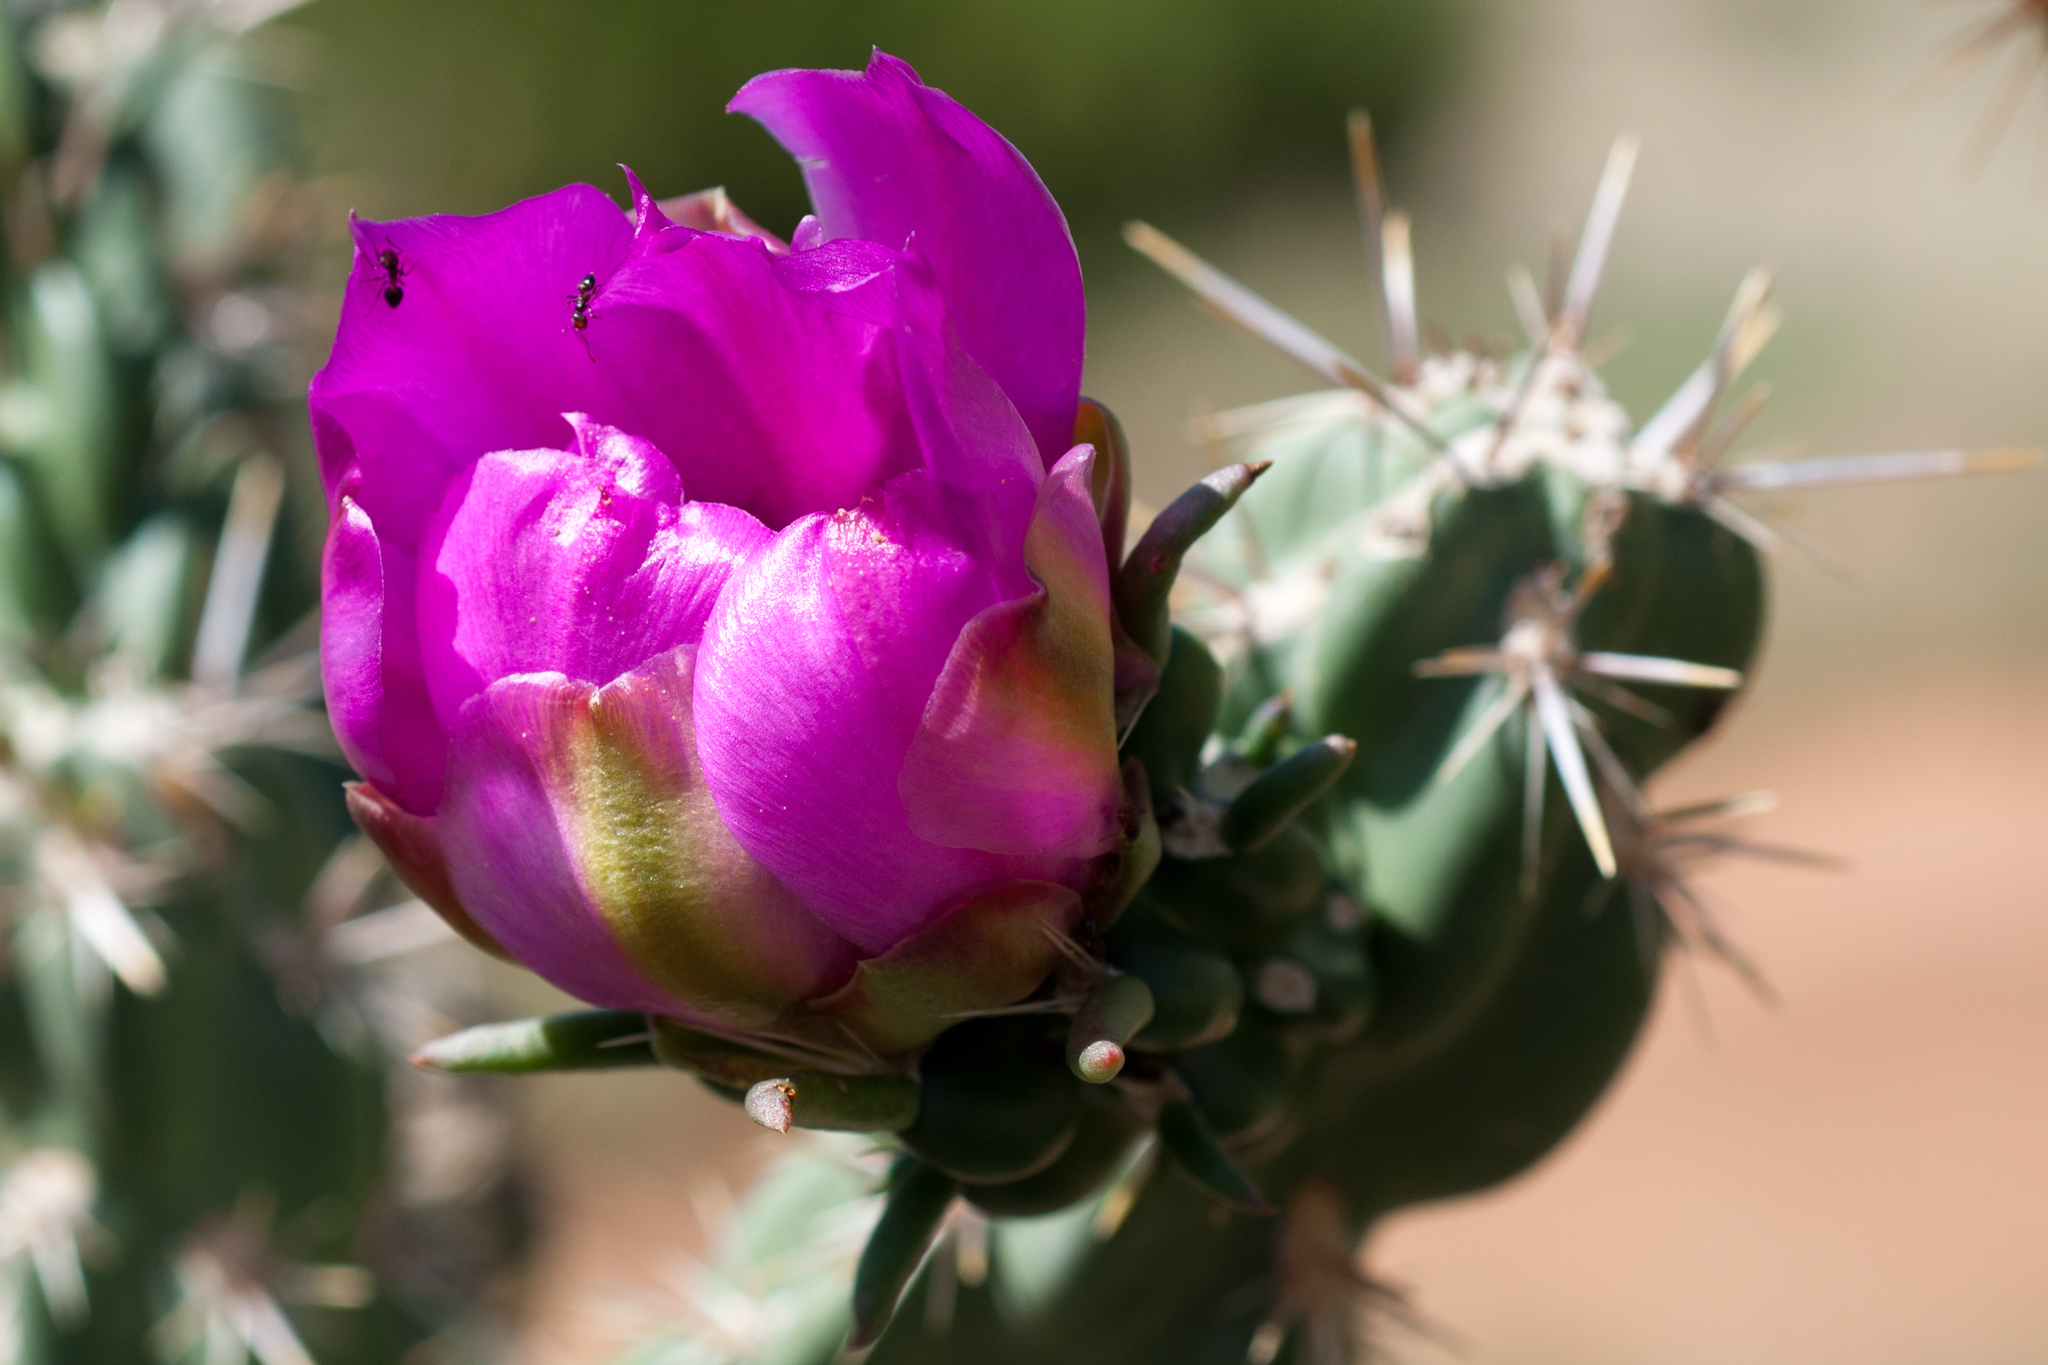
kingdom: Plantae
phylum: Tracheophyta
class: Magnoliopsida
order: Caryophyllales
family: Cactaceae
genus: Cylindropuntia
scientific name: Cylindropuntia imbricata
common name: Candelabrum cactus
